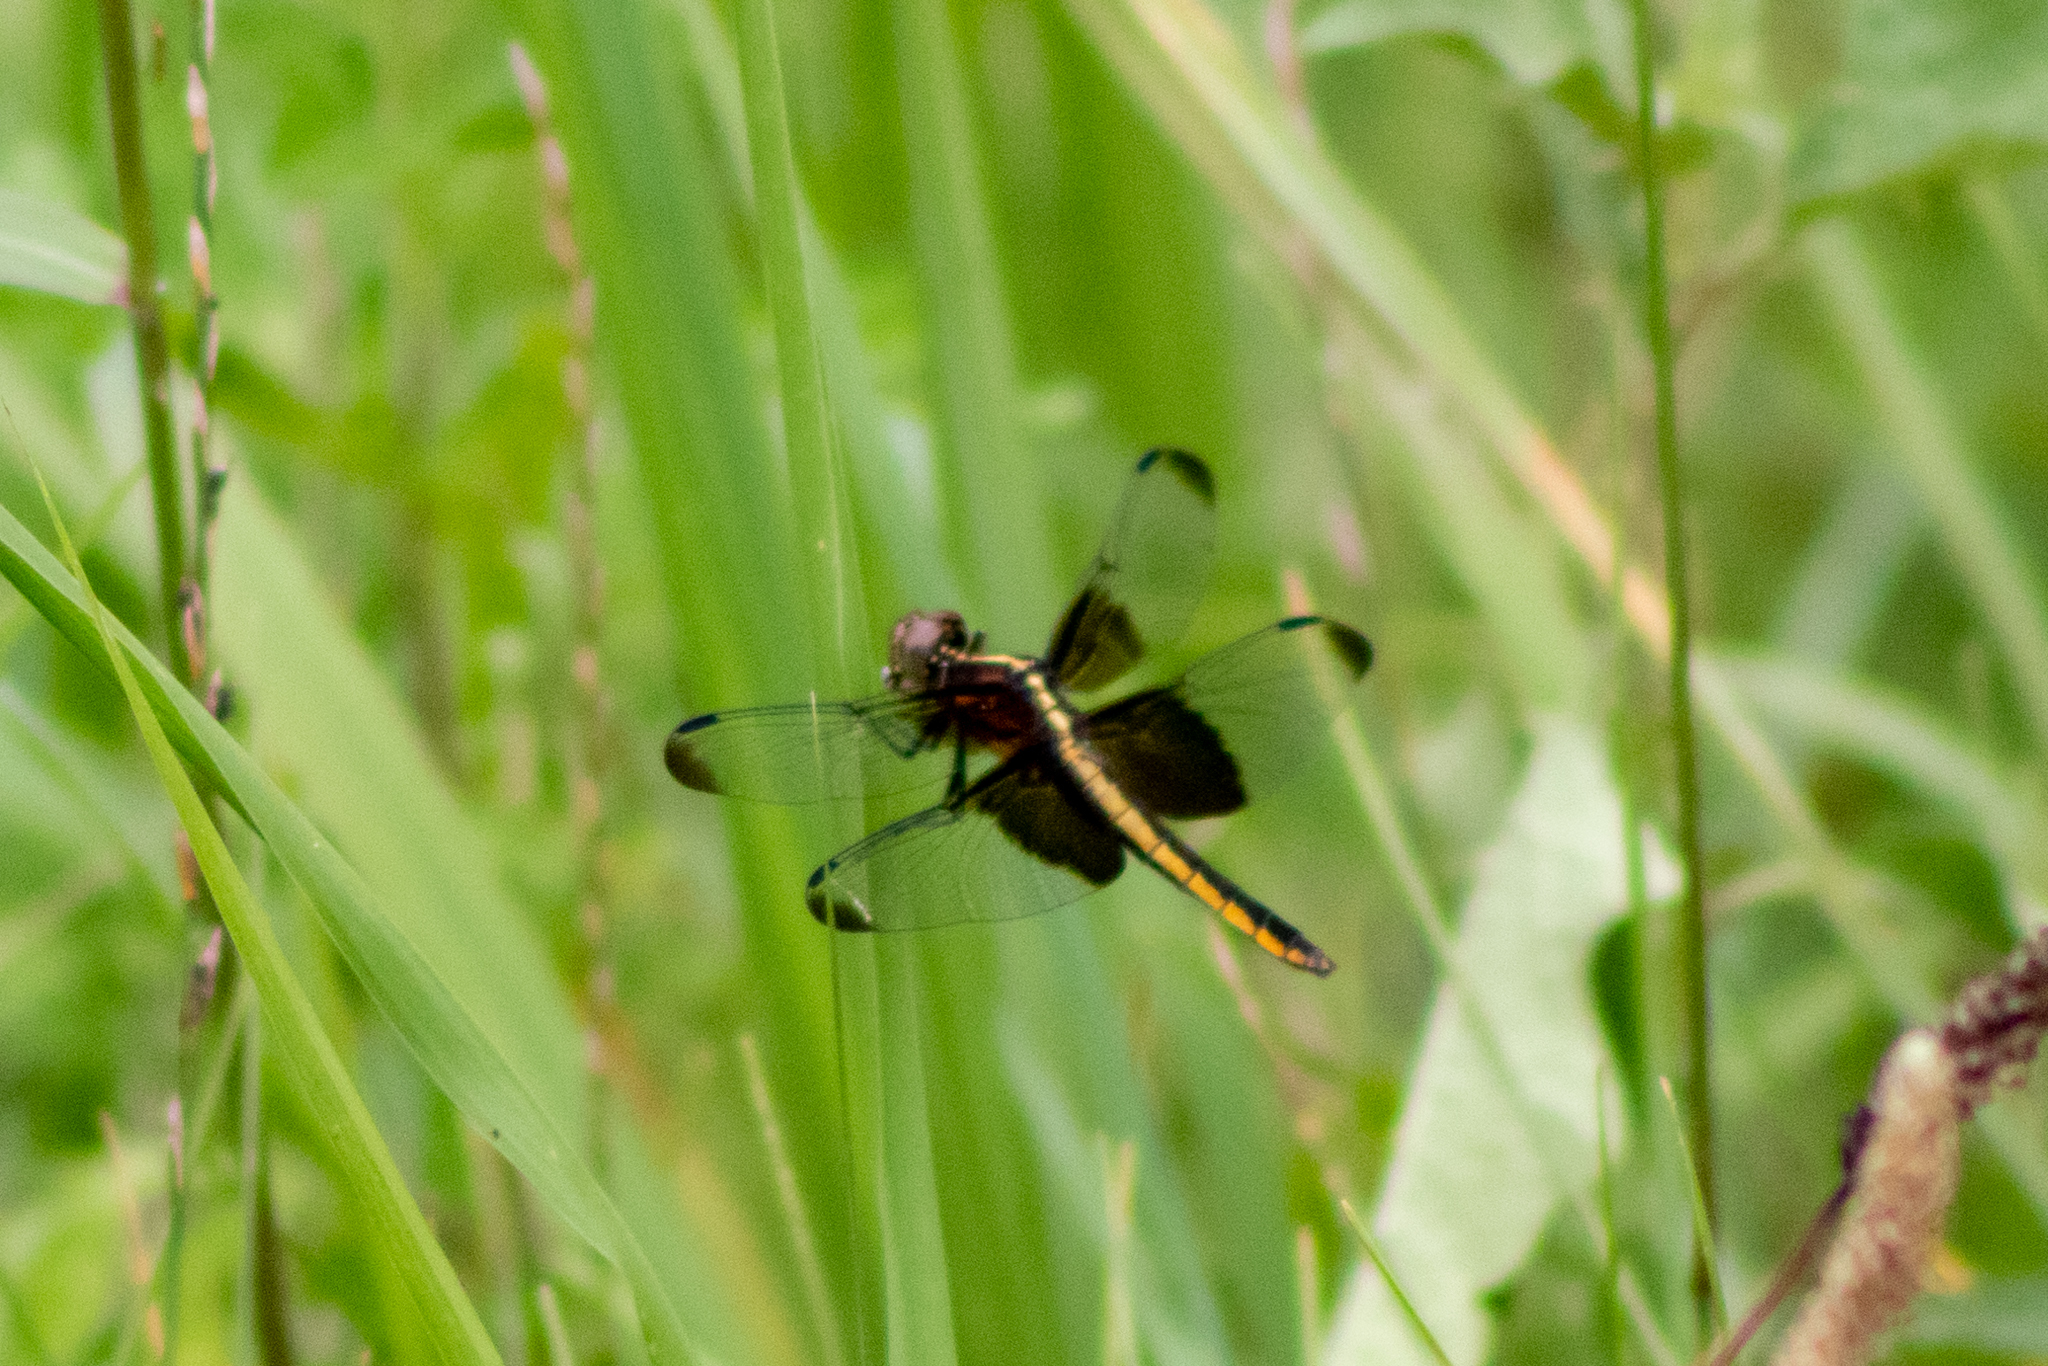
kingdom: Animalia
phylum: Arthropoda
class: Insecta
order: Odonata
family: Libellulidae
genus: Libellula
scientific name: Libellula luctuosa
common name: Widow skimmer
